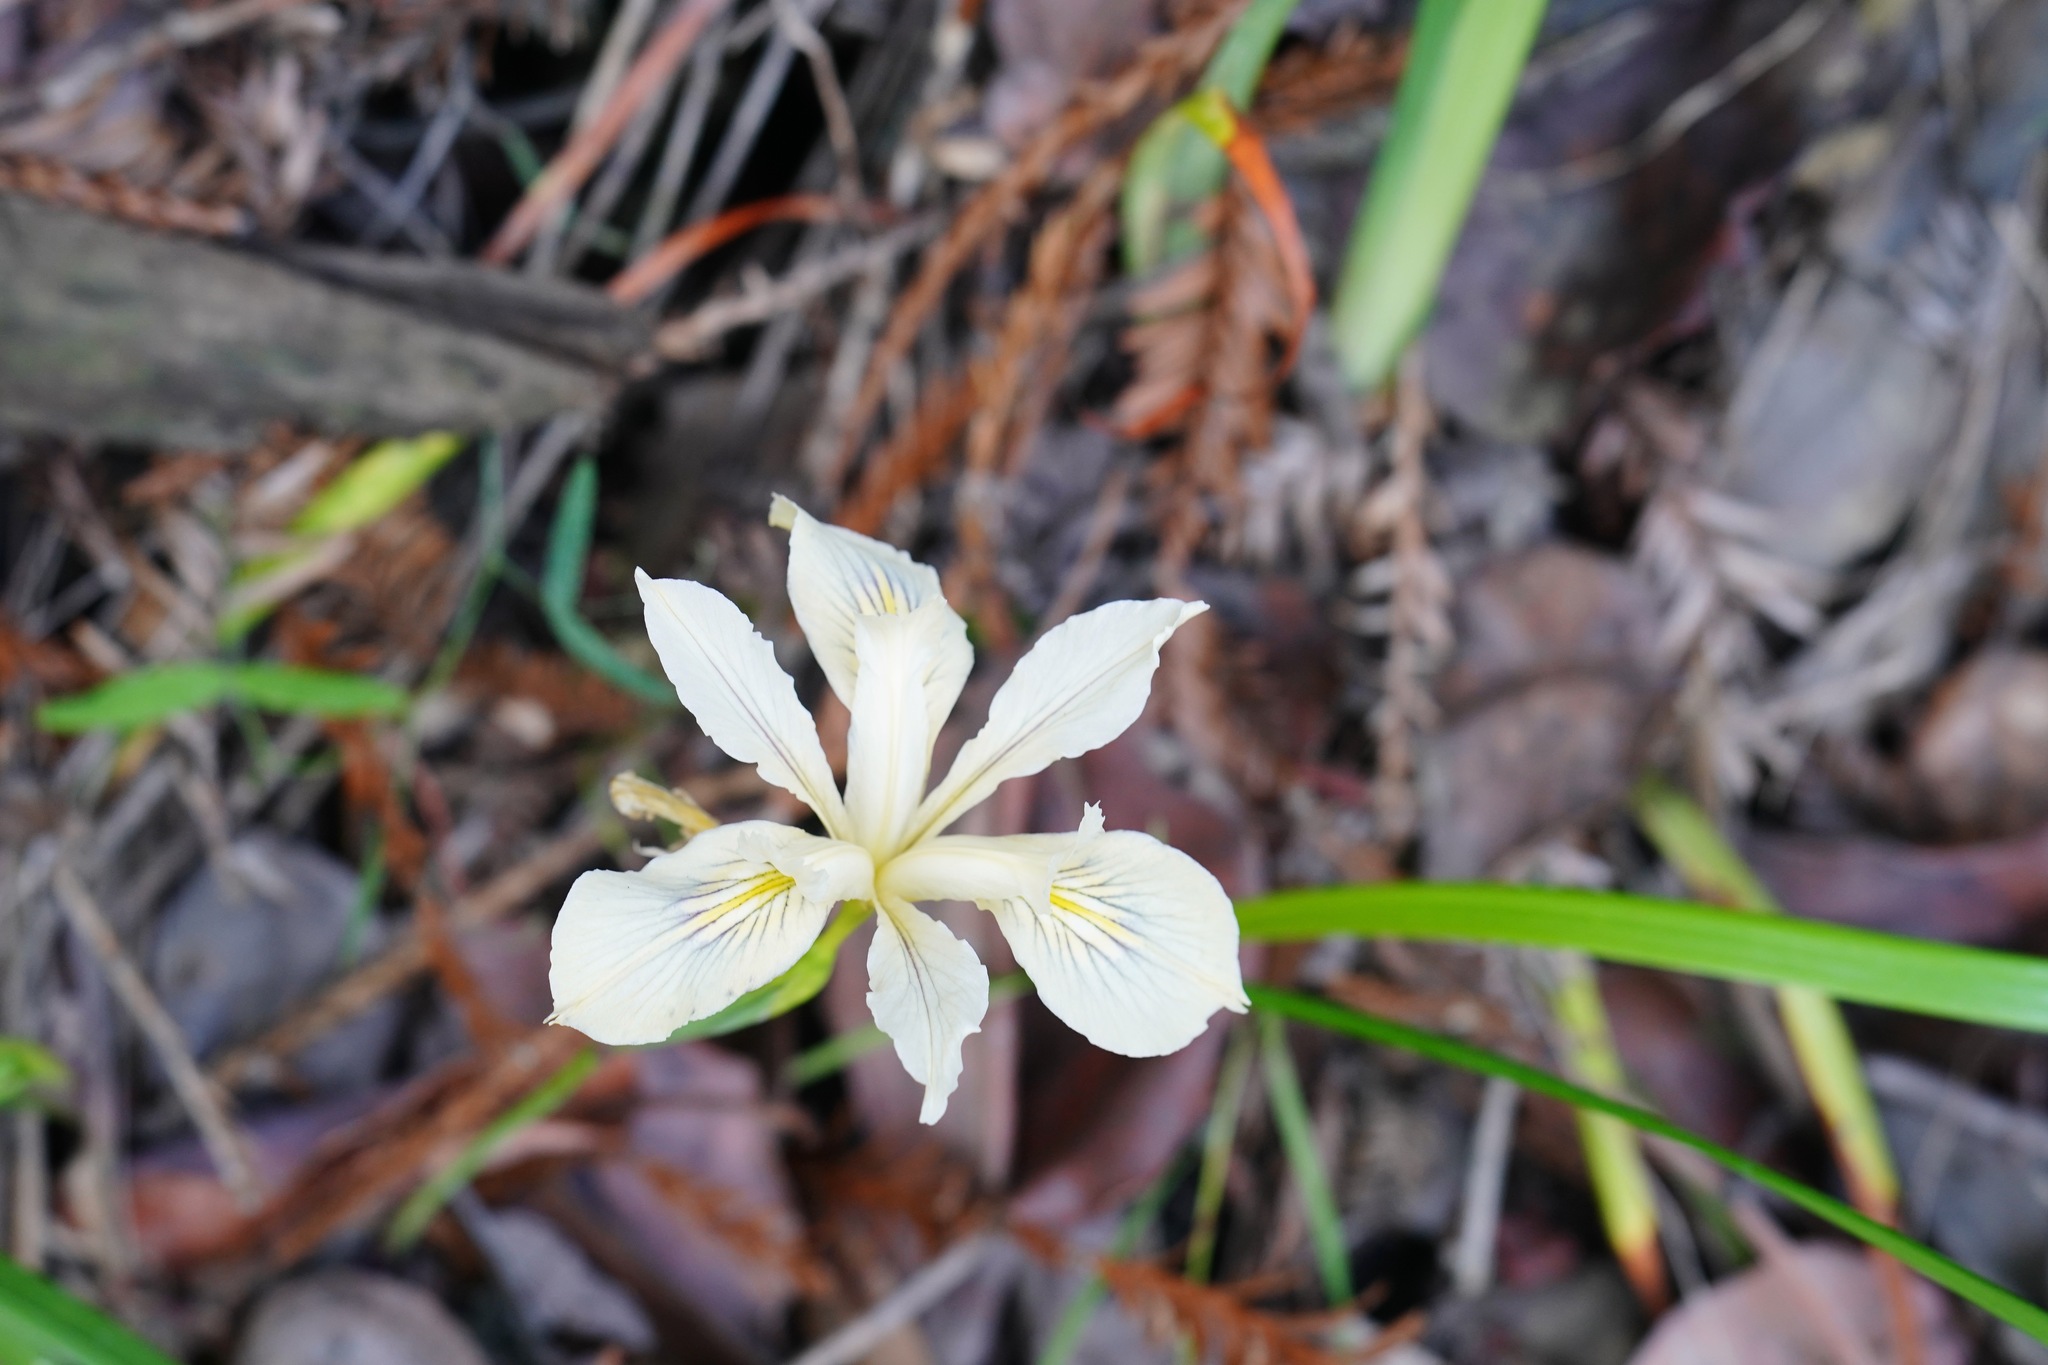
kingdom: Plantae
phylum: Tracheophyta
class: Liliopsida
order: Asparagales
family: Iridaceae
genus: Iris
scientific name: Iris douglasiana
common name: Marin iris
